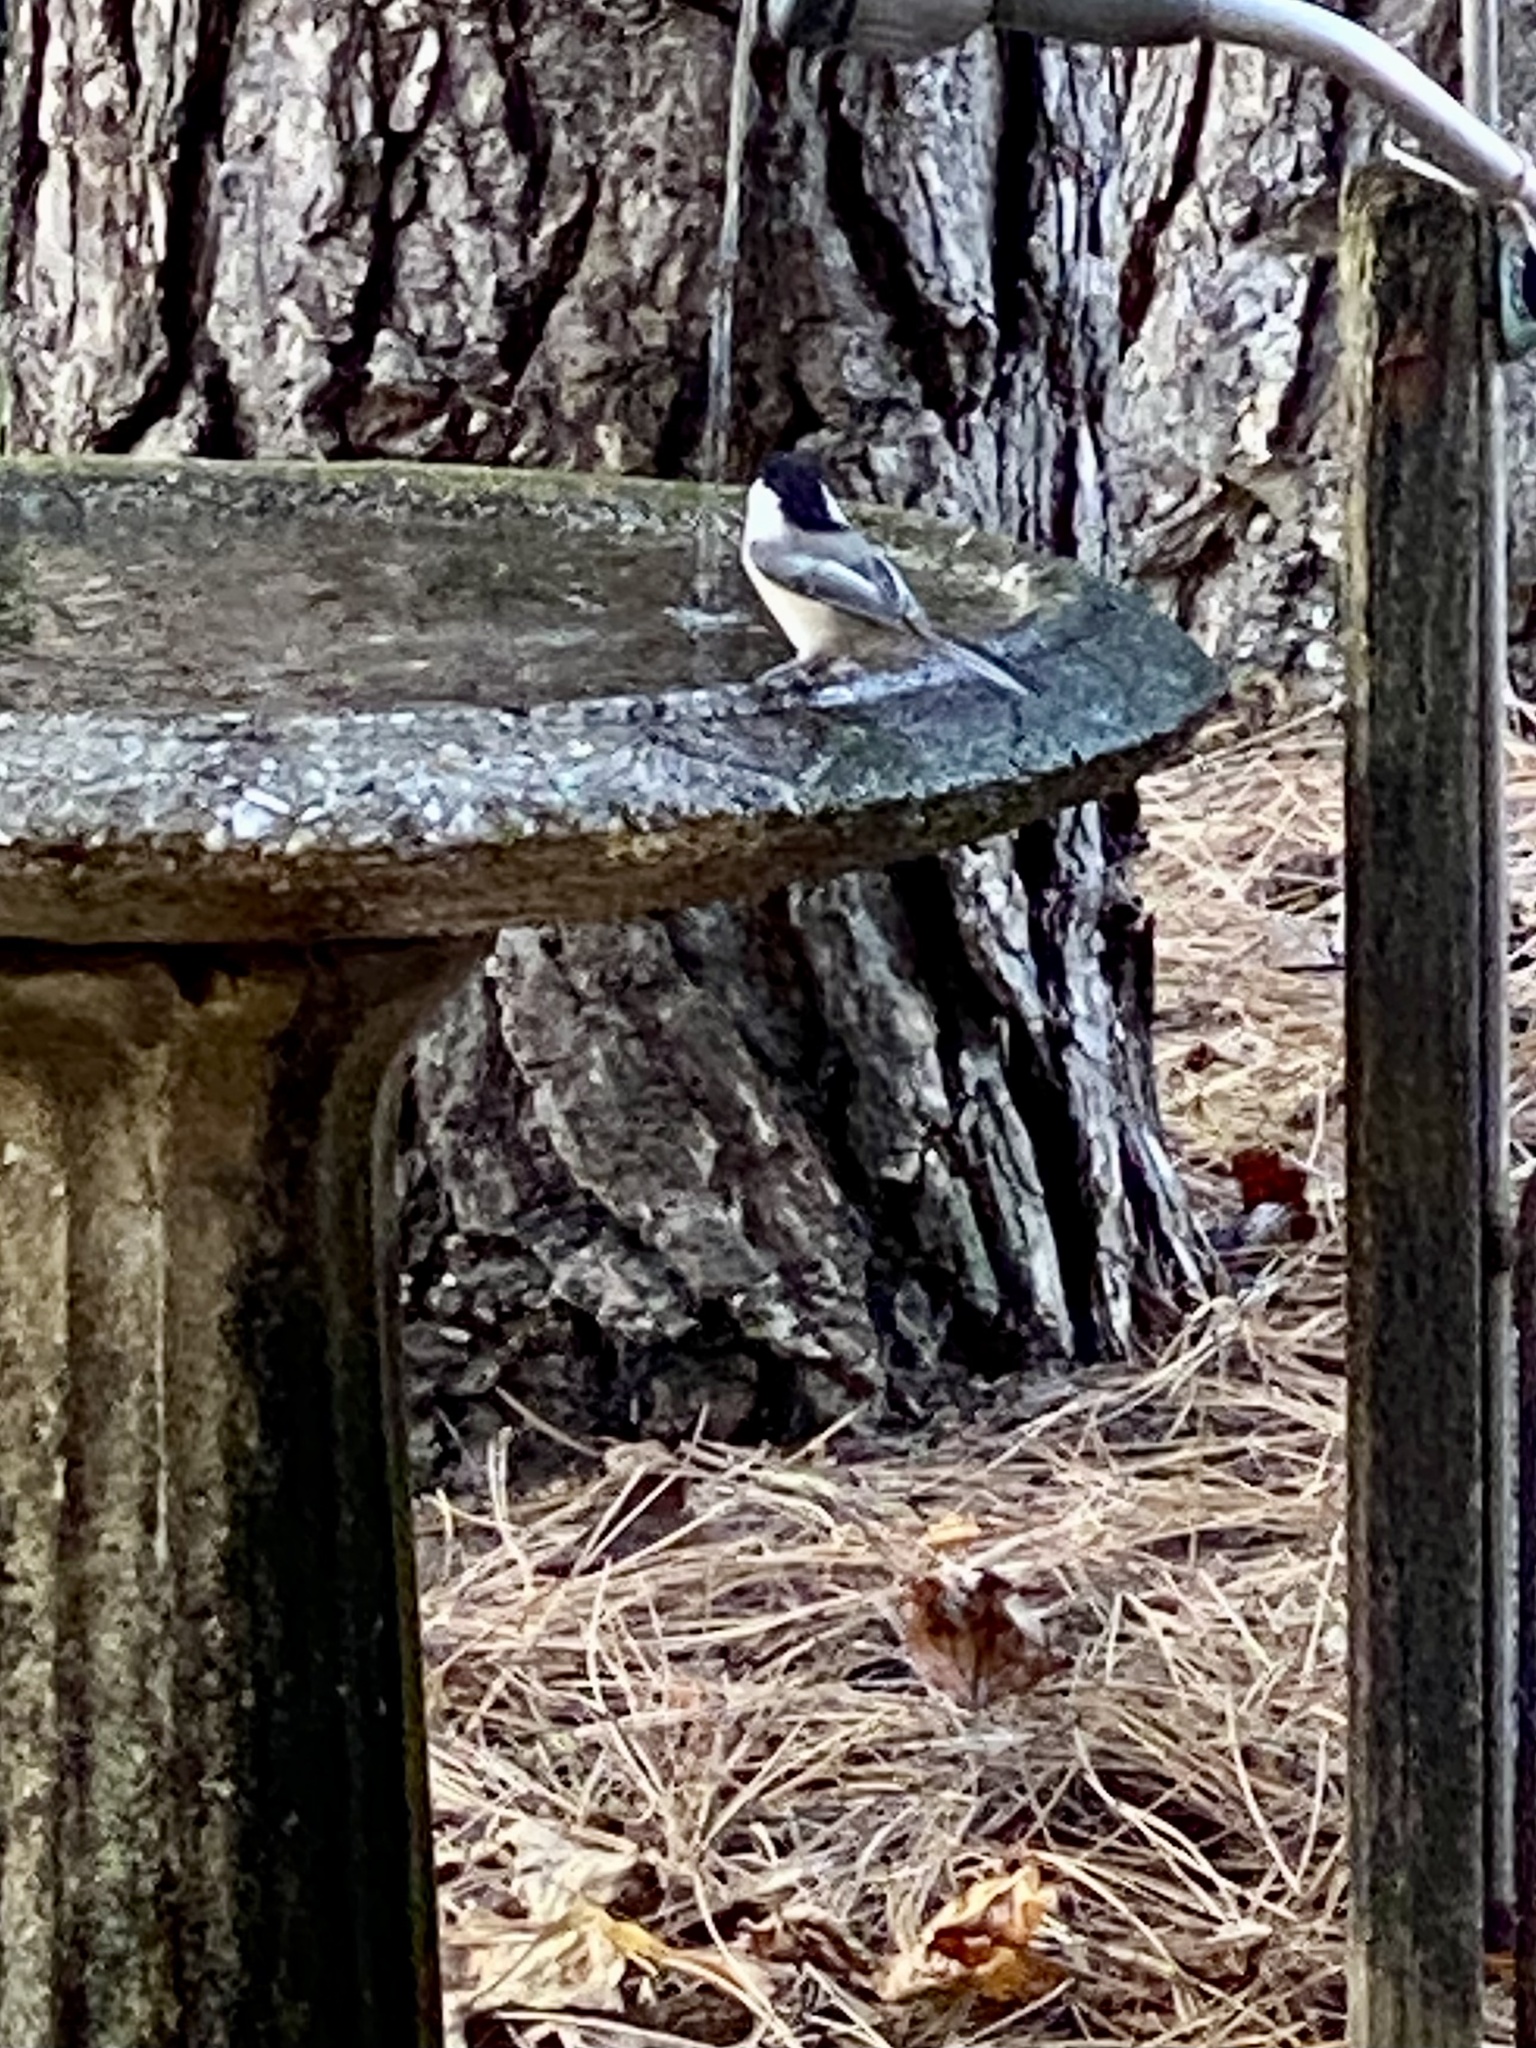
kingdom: Animalia
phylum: Chordata
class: Aves
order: Passeriformes
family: Paridae
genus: Poecile
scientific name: Poecile atricapillus
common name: Black-capped chickadee
